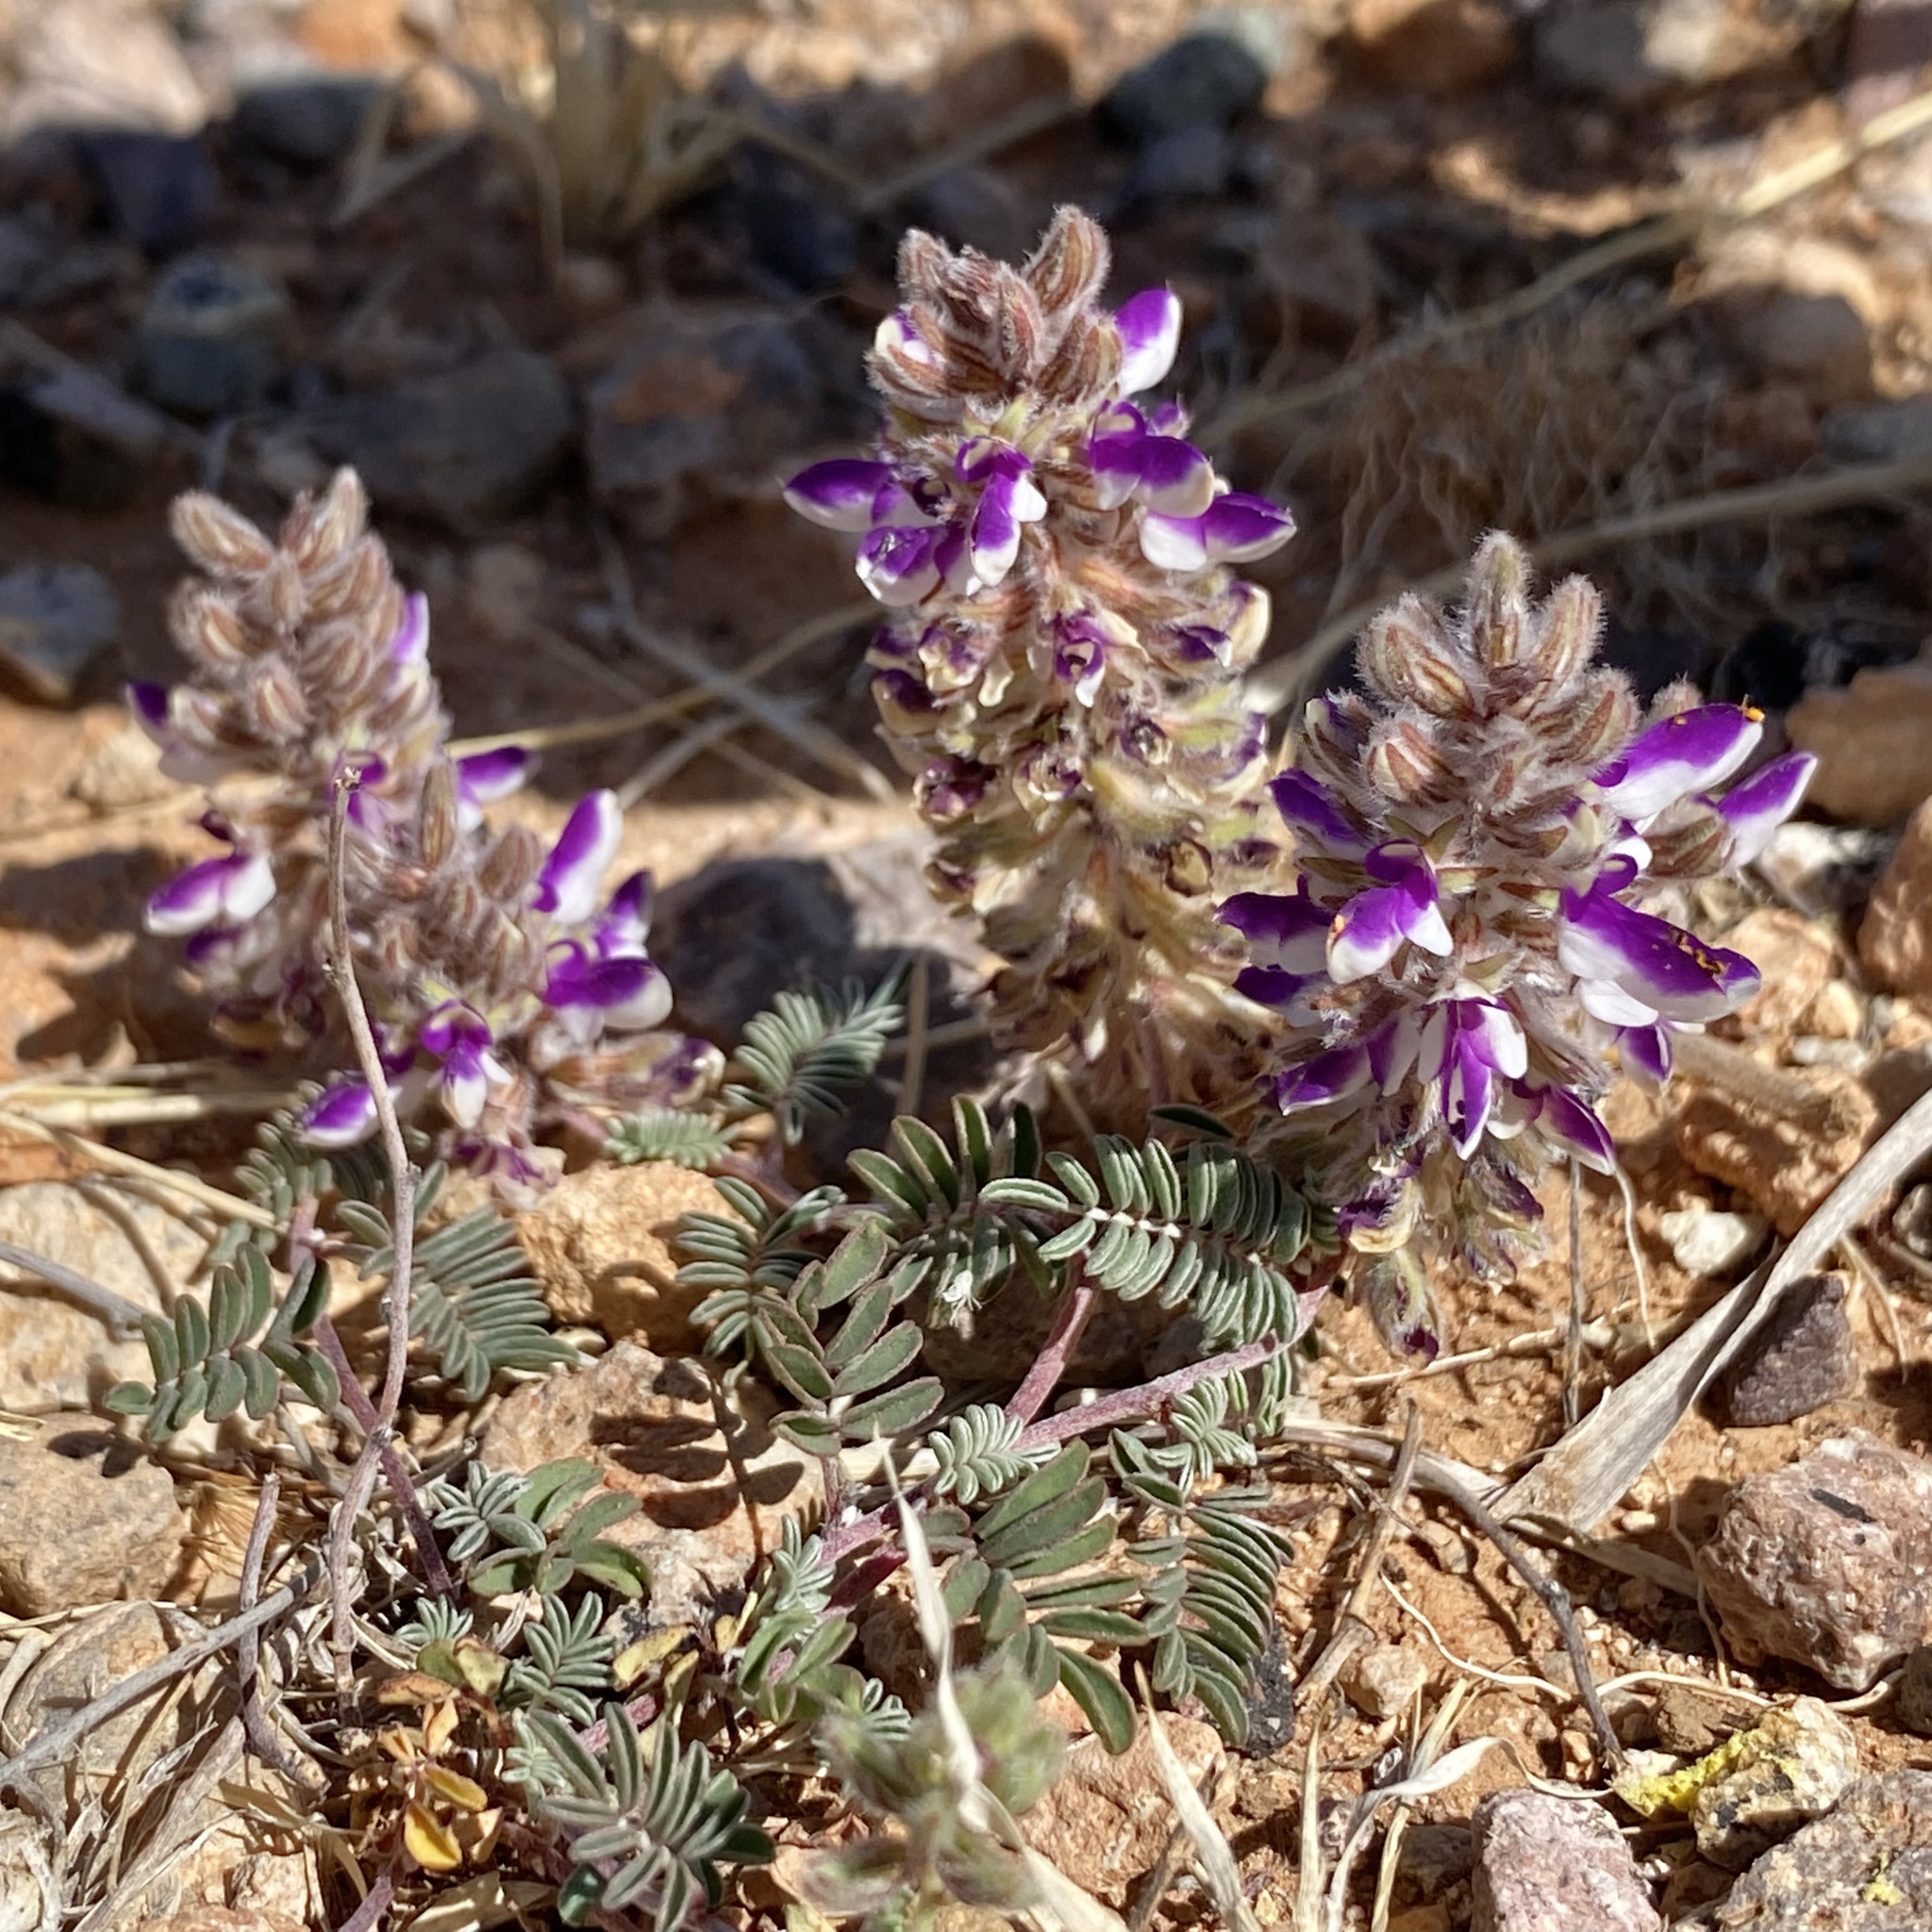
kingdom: Plantae
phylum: Tracheophyta
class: Magnoliopsida
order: Fabales
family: Fabaceae
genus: Marina
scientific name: Marina calycosa
